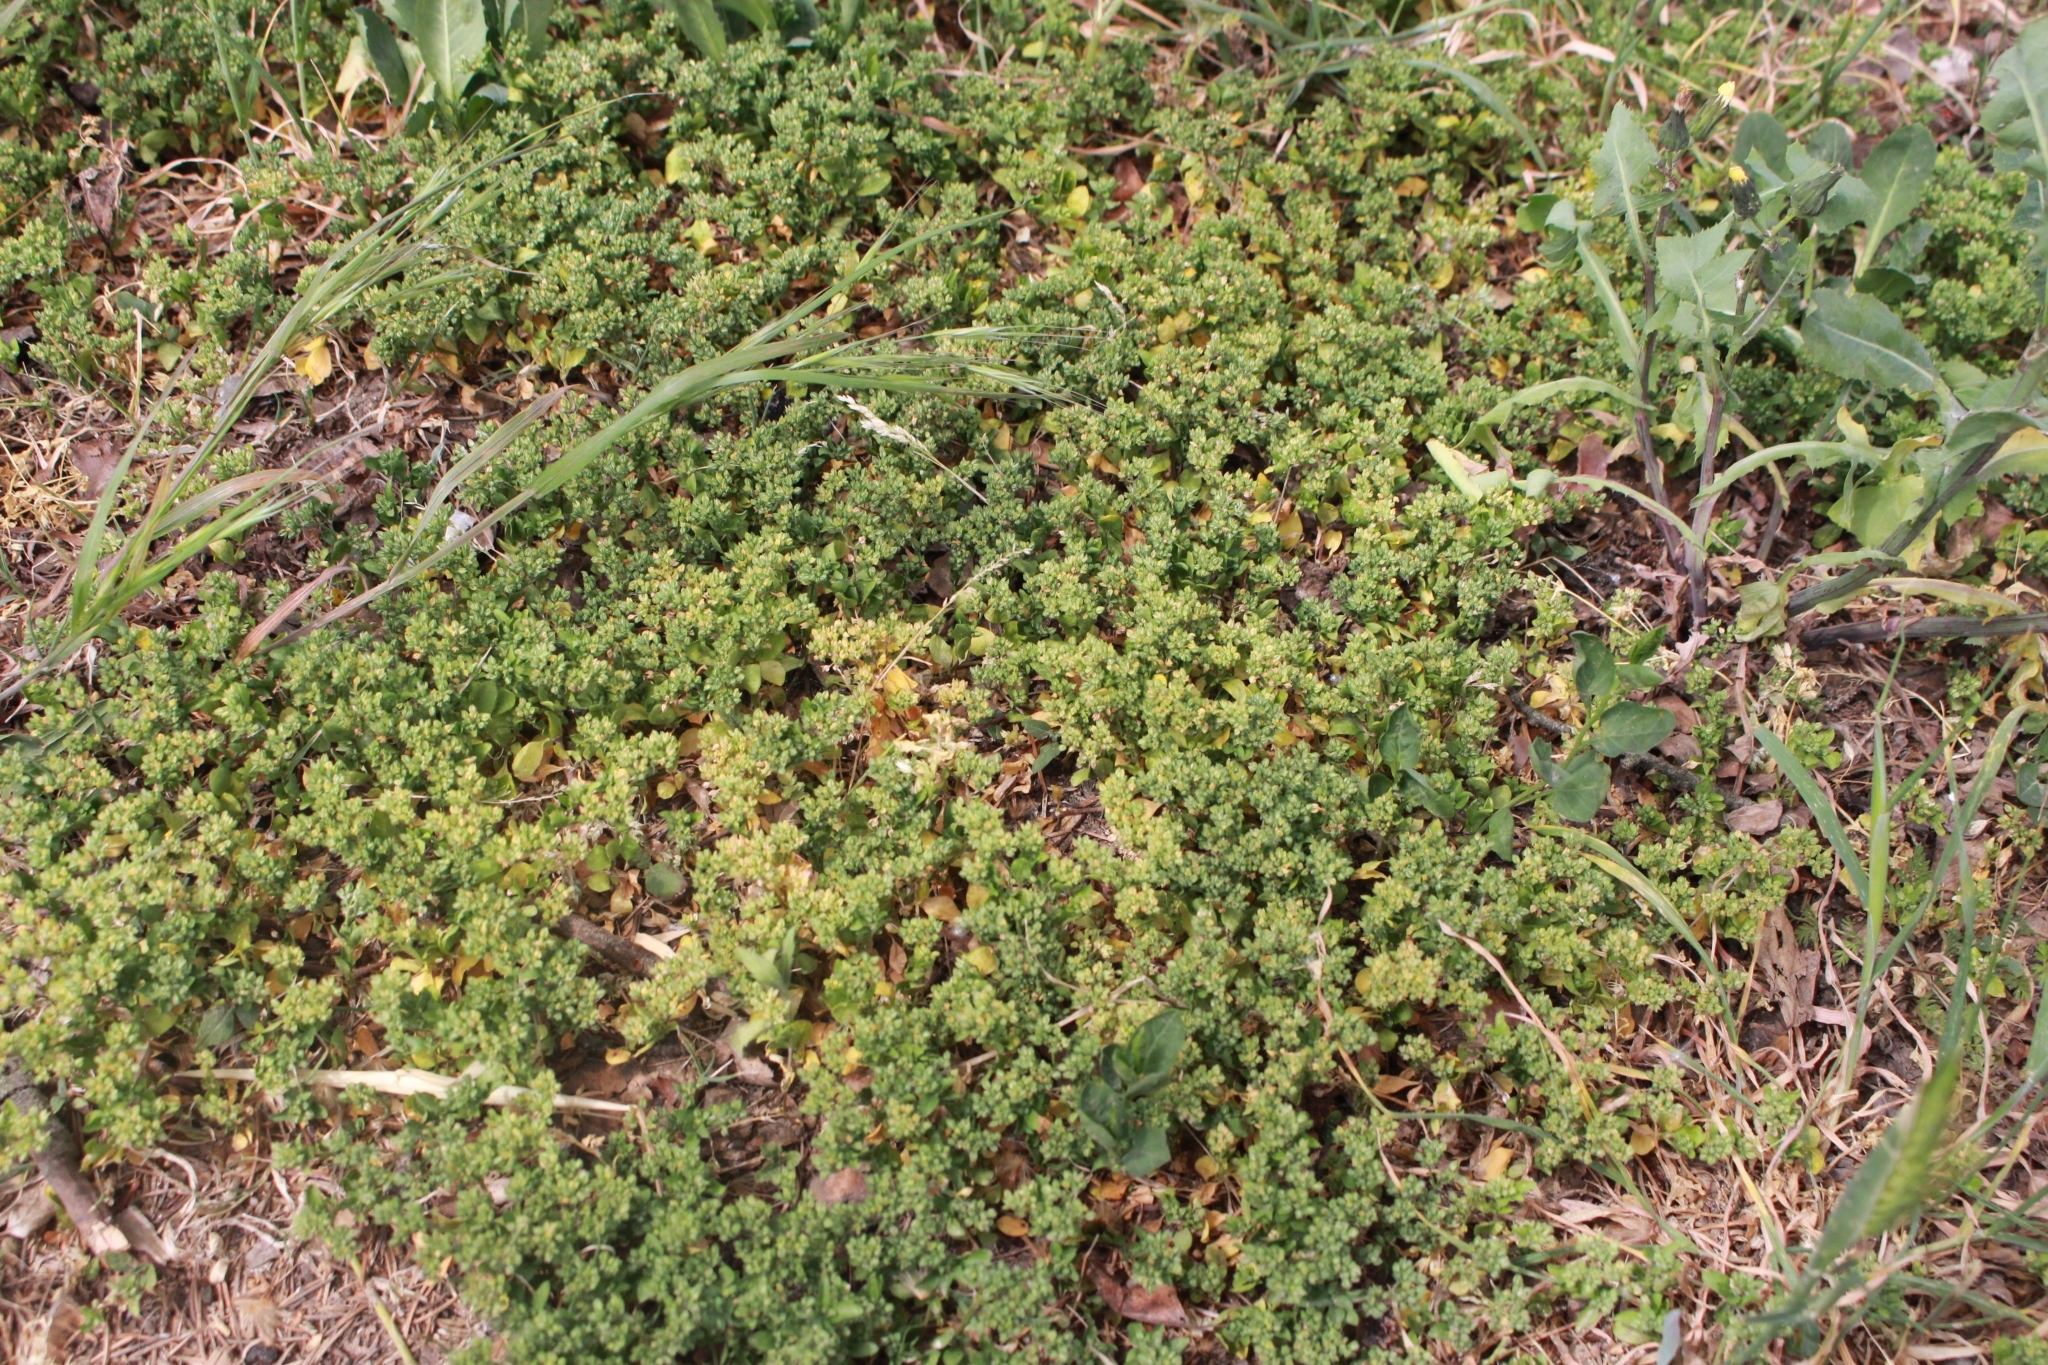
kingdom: Plantae
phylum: Tracheophyta
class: Magnoliopsida
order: Caryophyllales
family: Caryophyllaceae
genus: Polycarpon
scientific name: Polycarpon tetraphyllum
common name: Four-leaved all-seed
